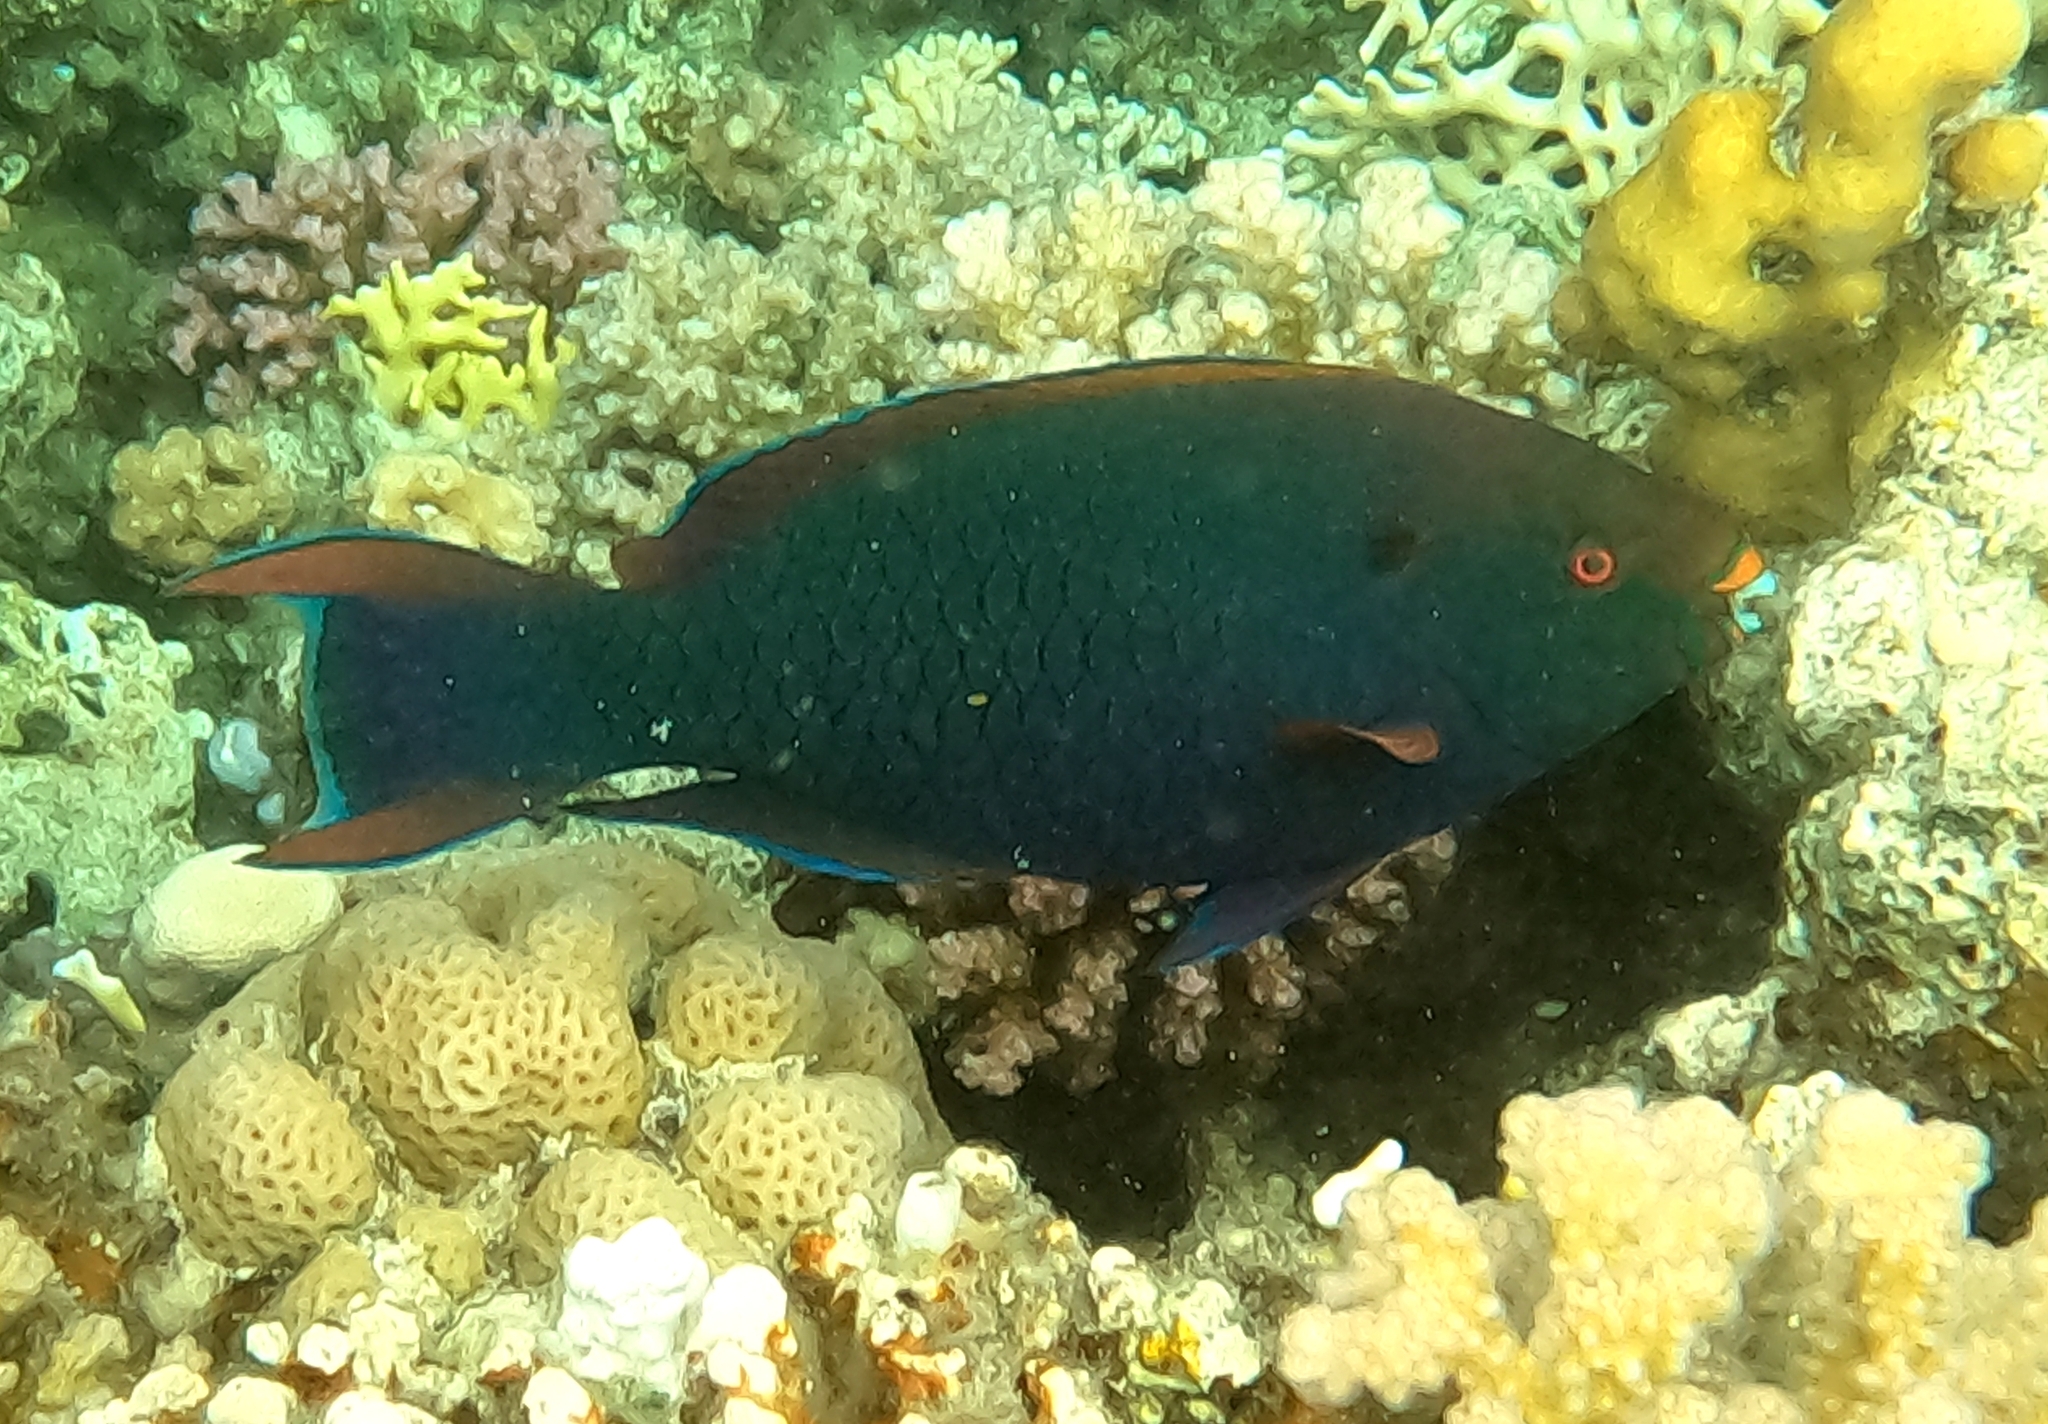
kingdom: Animalia
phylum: Chordata
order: Perciformes
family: Scaridae
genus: Scarus
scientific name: Scarus niger
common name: Dusky parrotfish
